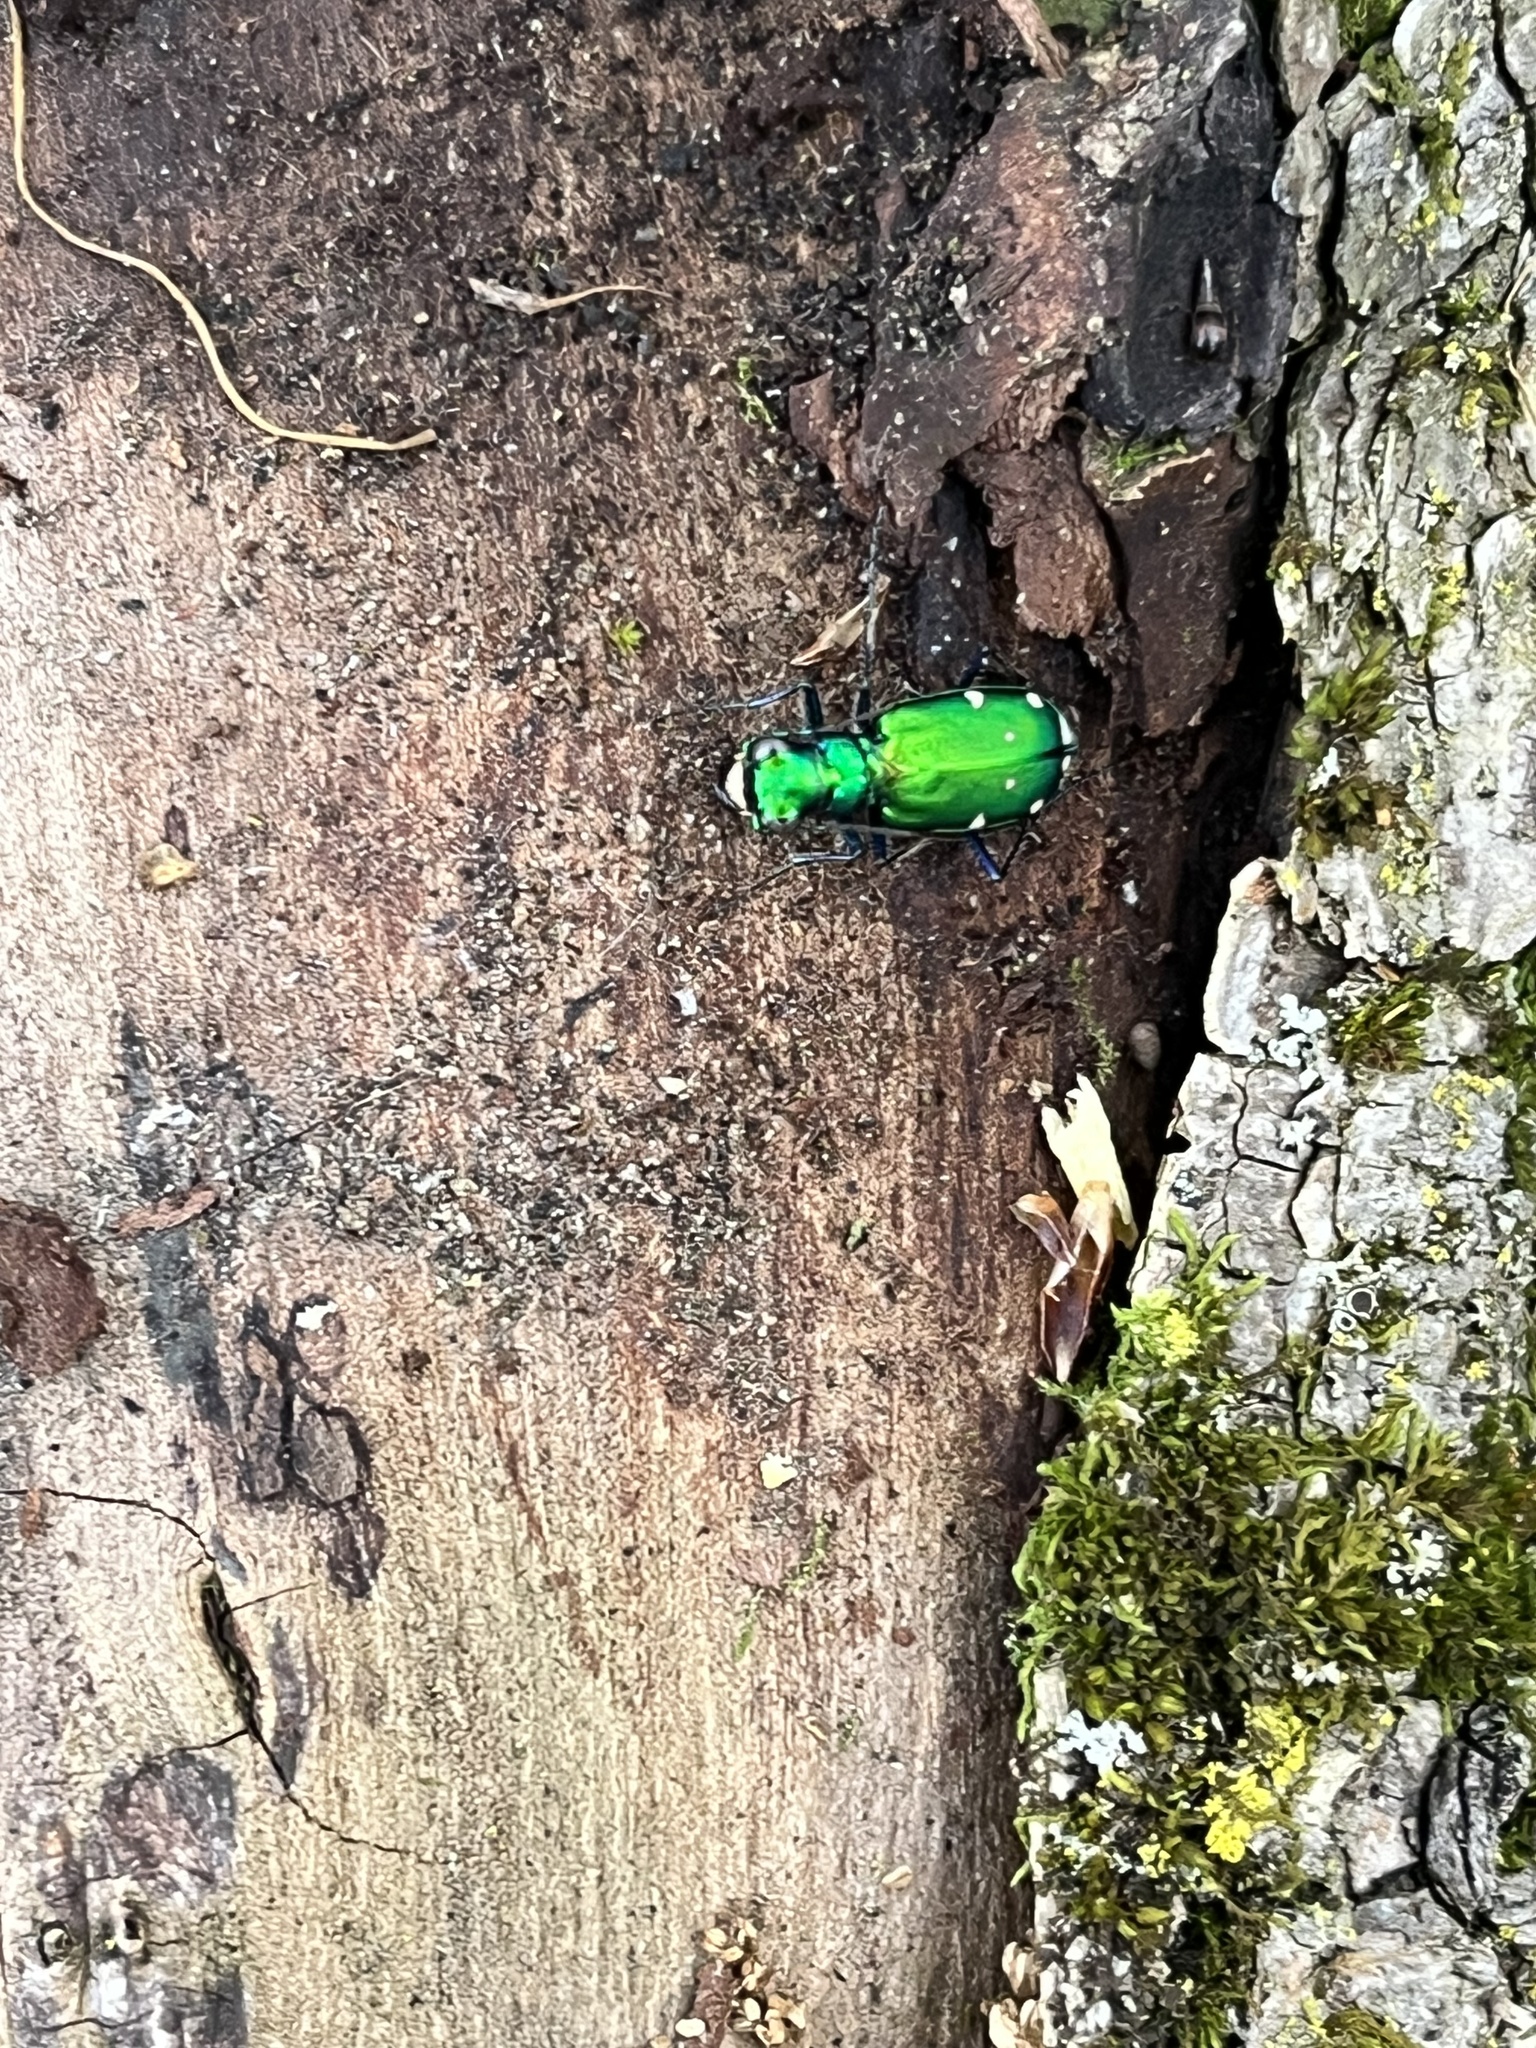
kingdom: Animalia
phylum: Arthropoda
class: Insecta
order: Coleoptera
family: Carabidae
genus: Cicindela
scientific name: Cicindela sexguttata
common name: Six-spotted tiger beetle
